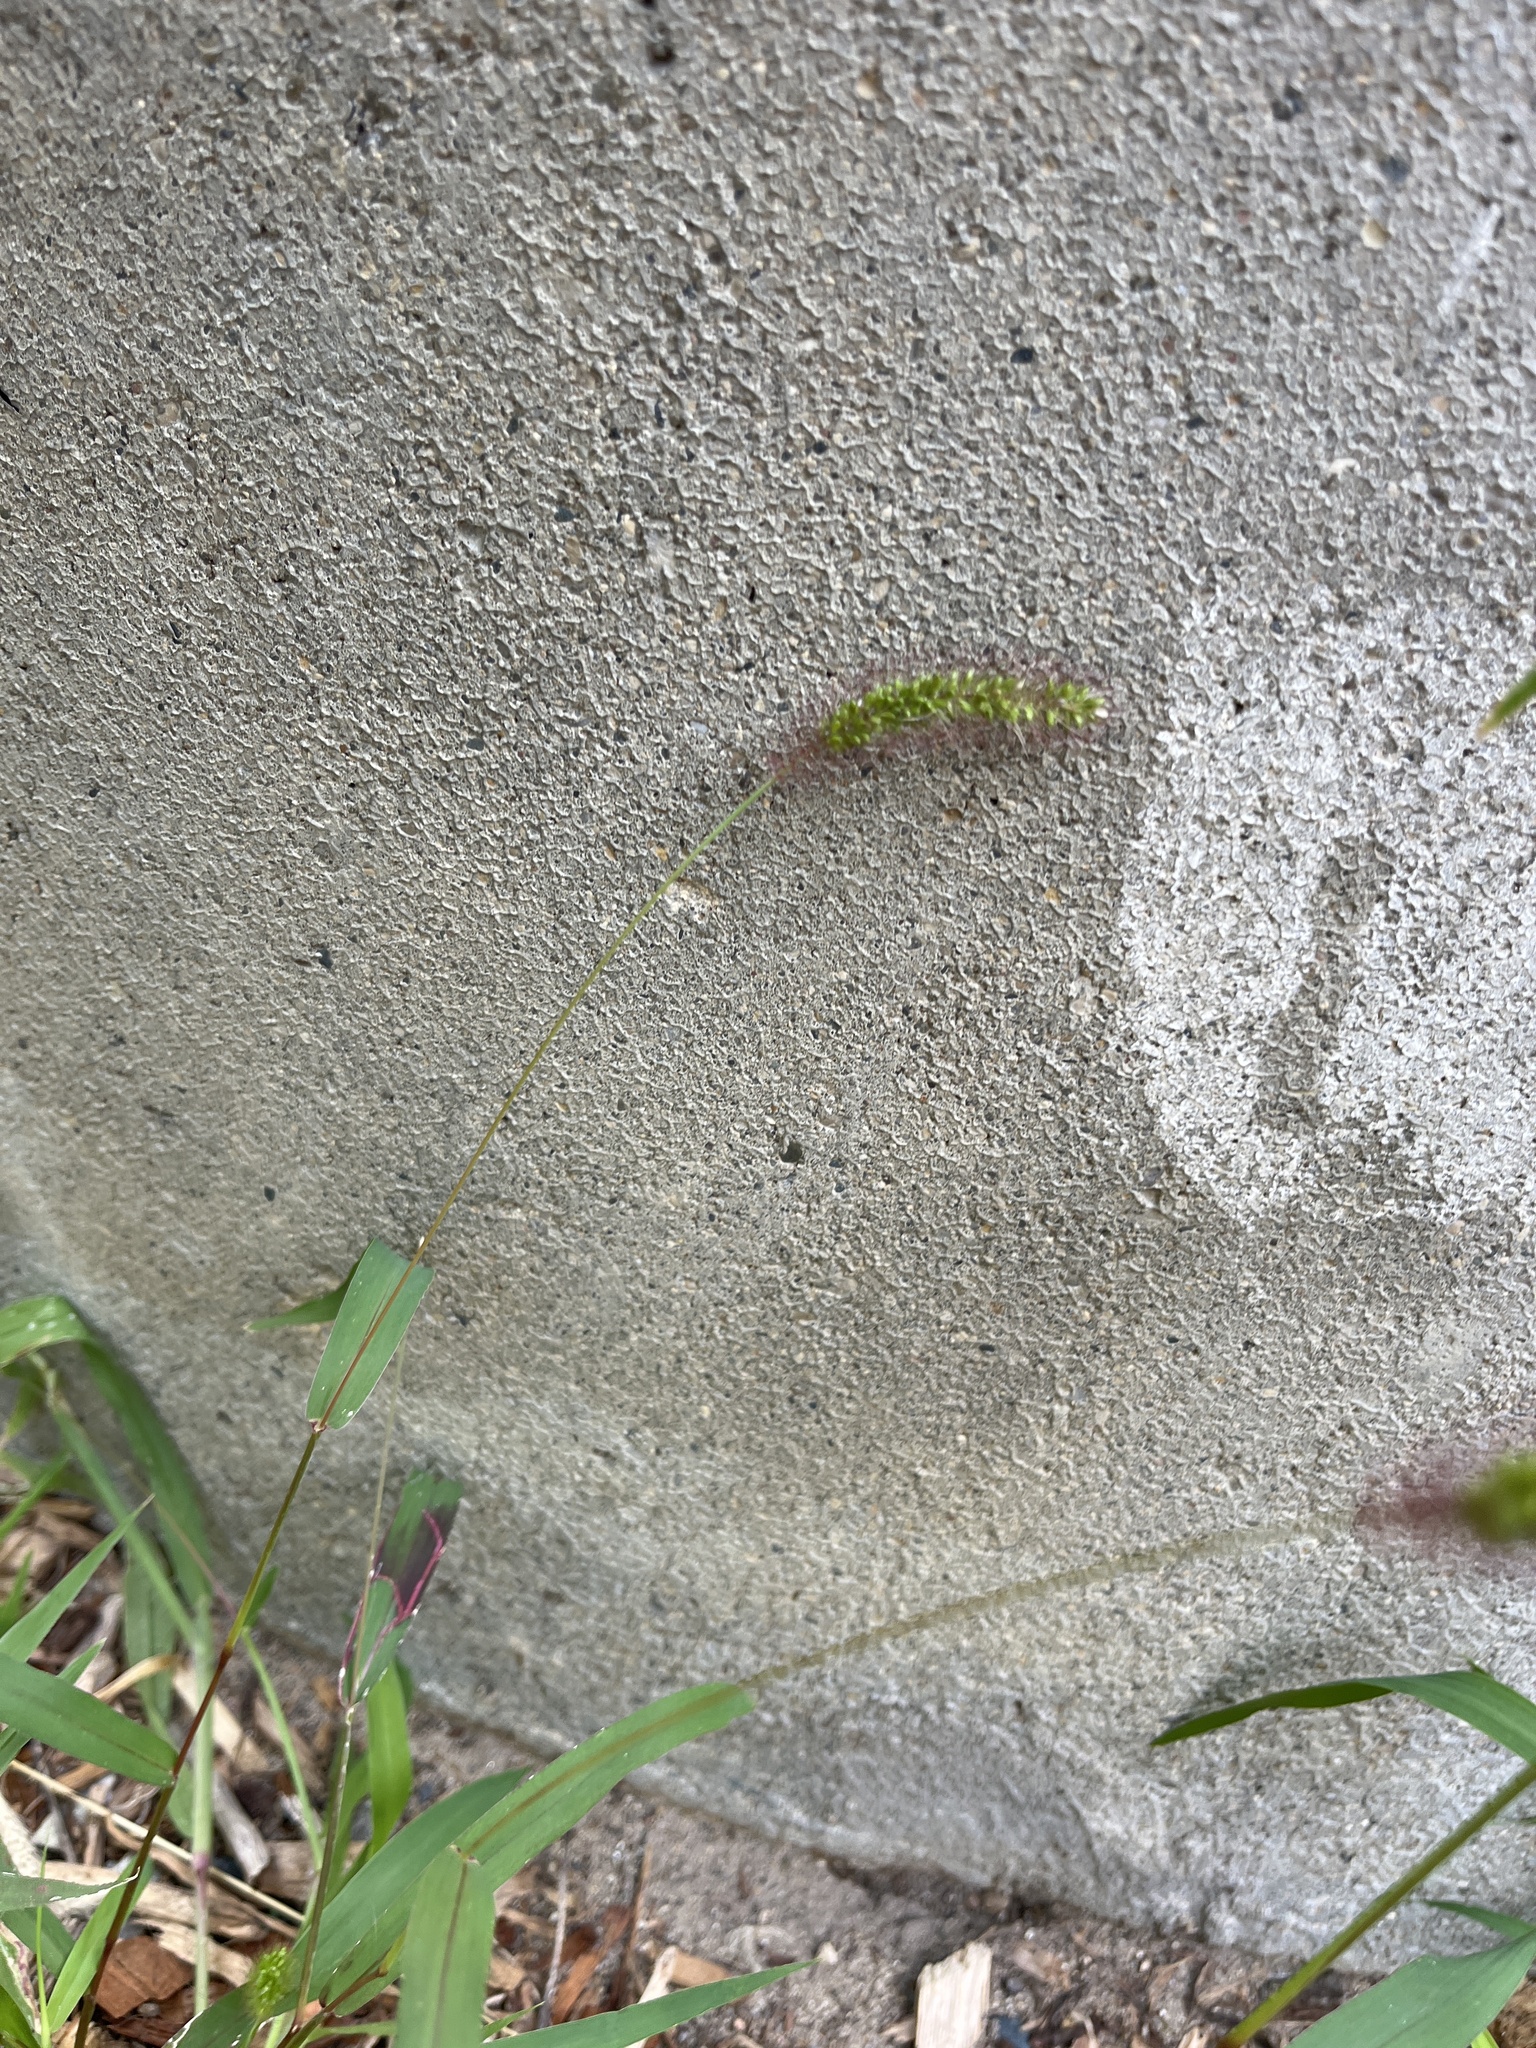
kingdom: Plantae
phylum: Tracheophyta
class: Liliopsida
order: Poales
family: Poaceae
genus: Setaria
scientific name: Setaria viridis
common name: Green bristlegrass
